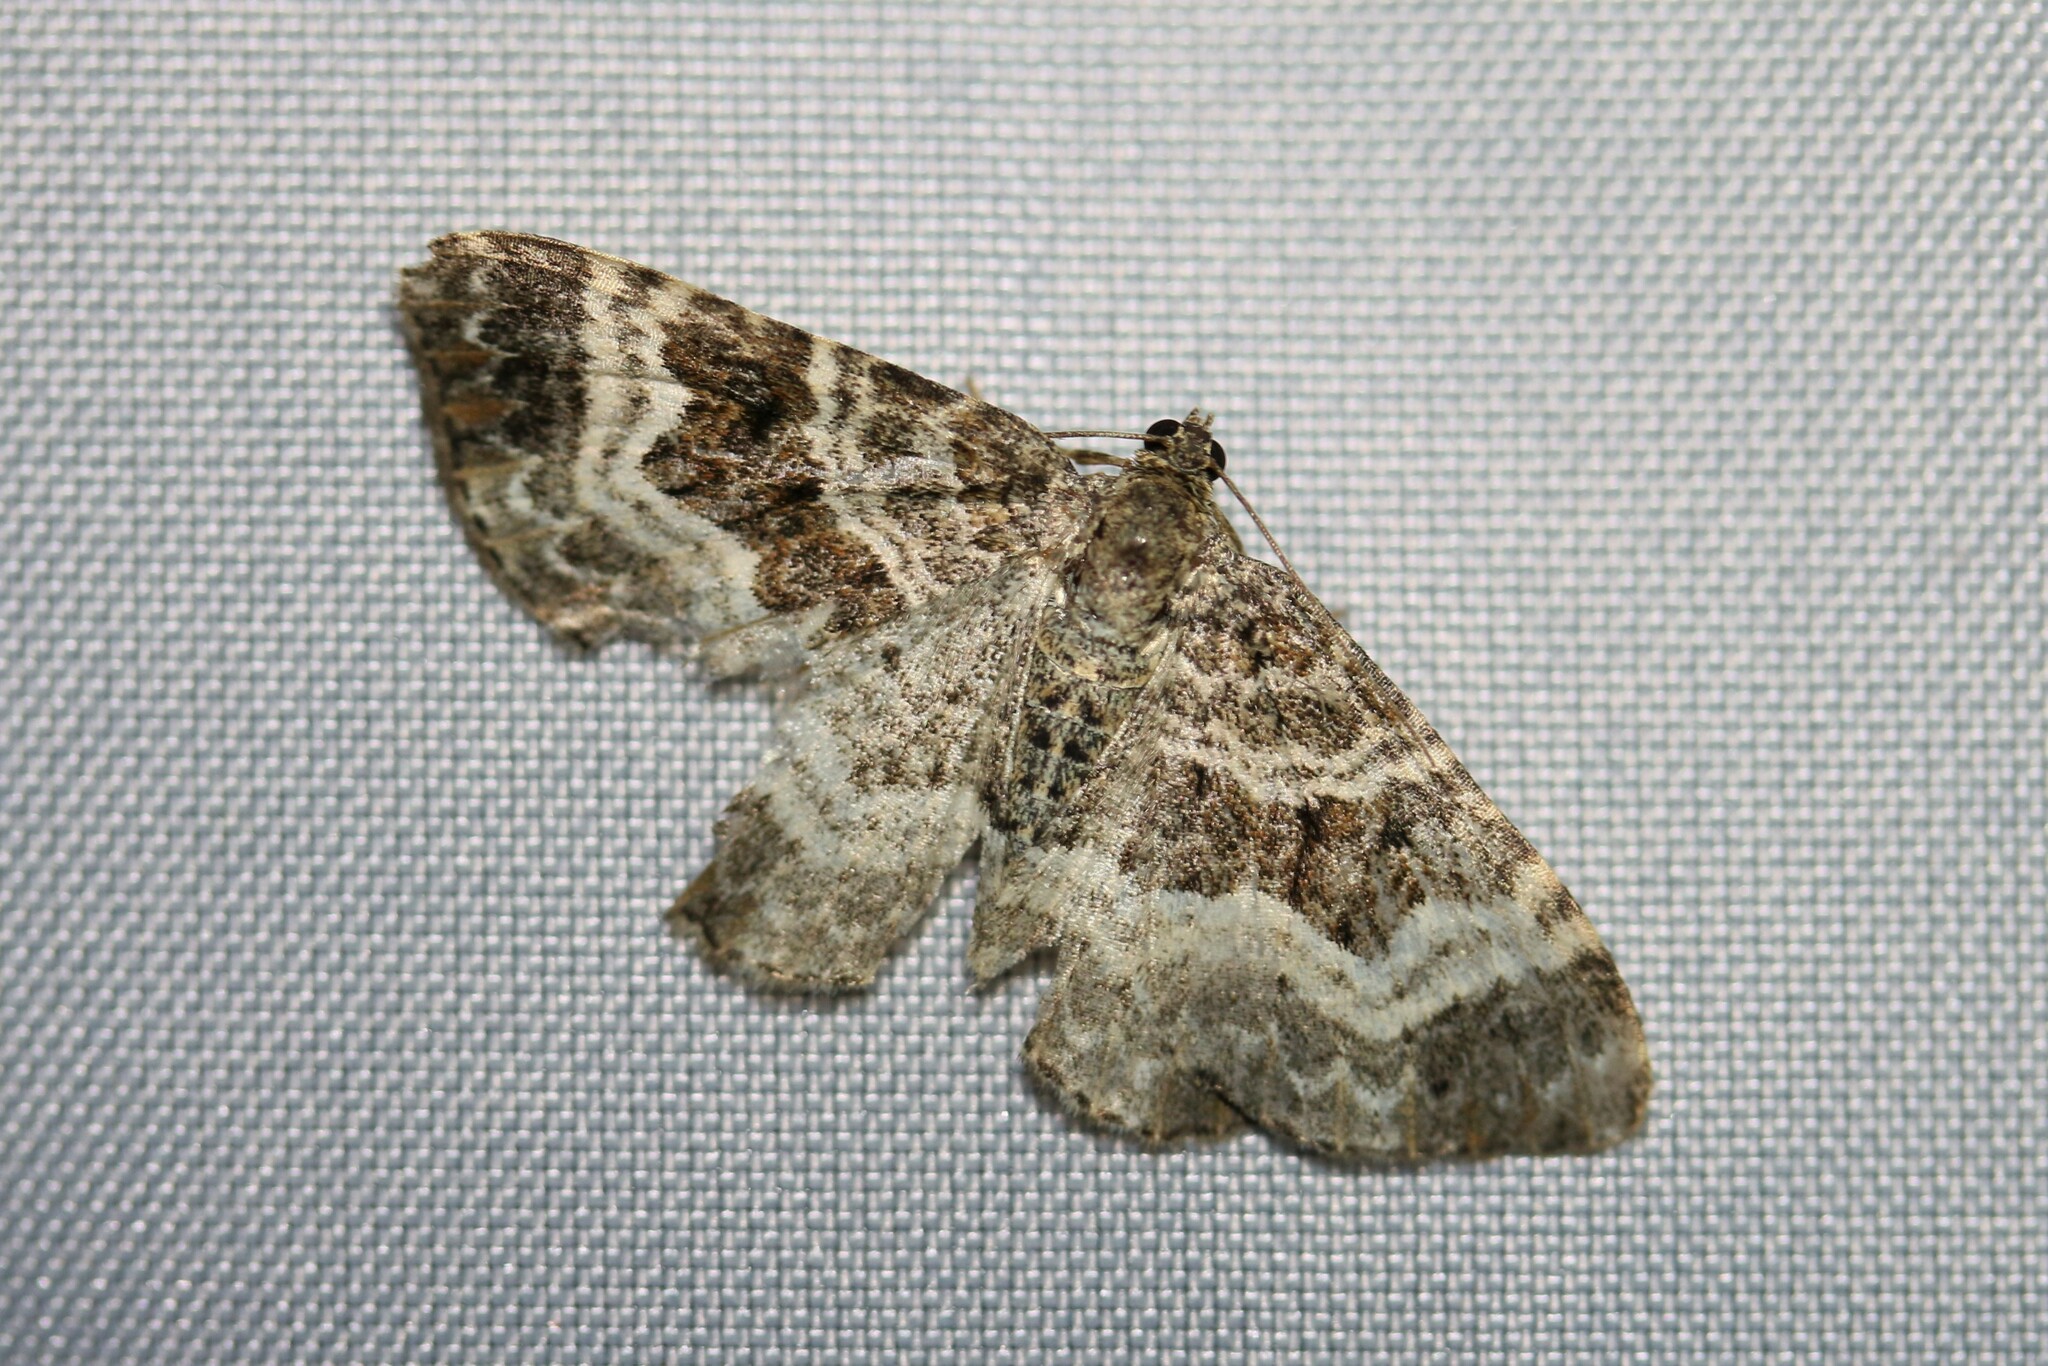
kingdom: Animalia
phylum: Arthropoda
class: Insecta
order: Lepidoptera
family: Geometridae
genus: Epirrhoe
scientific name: Epirrhoe alternata
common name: Common carpet
